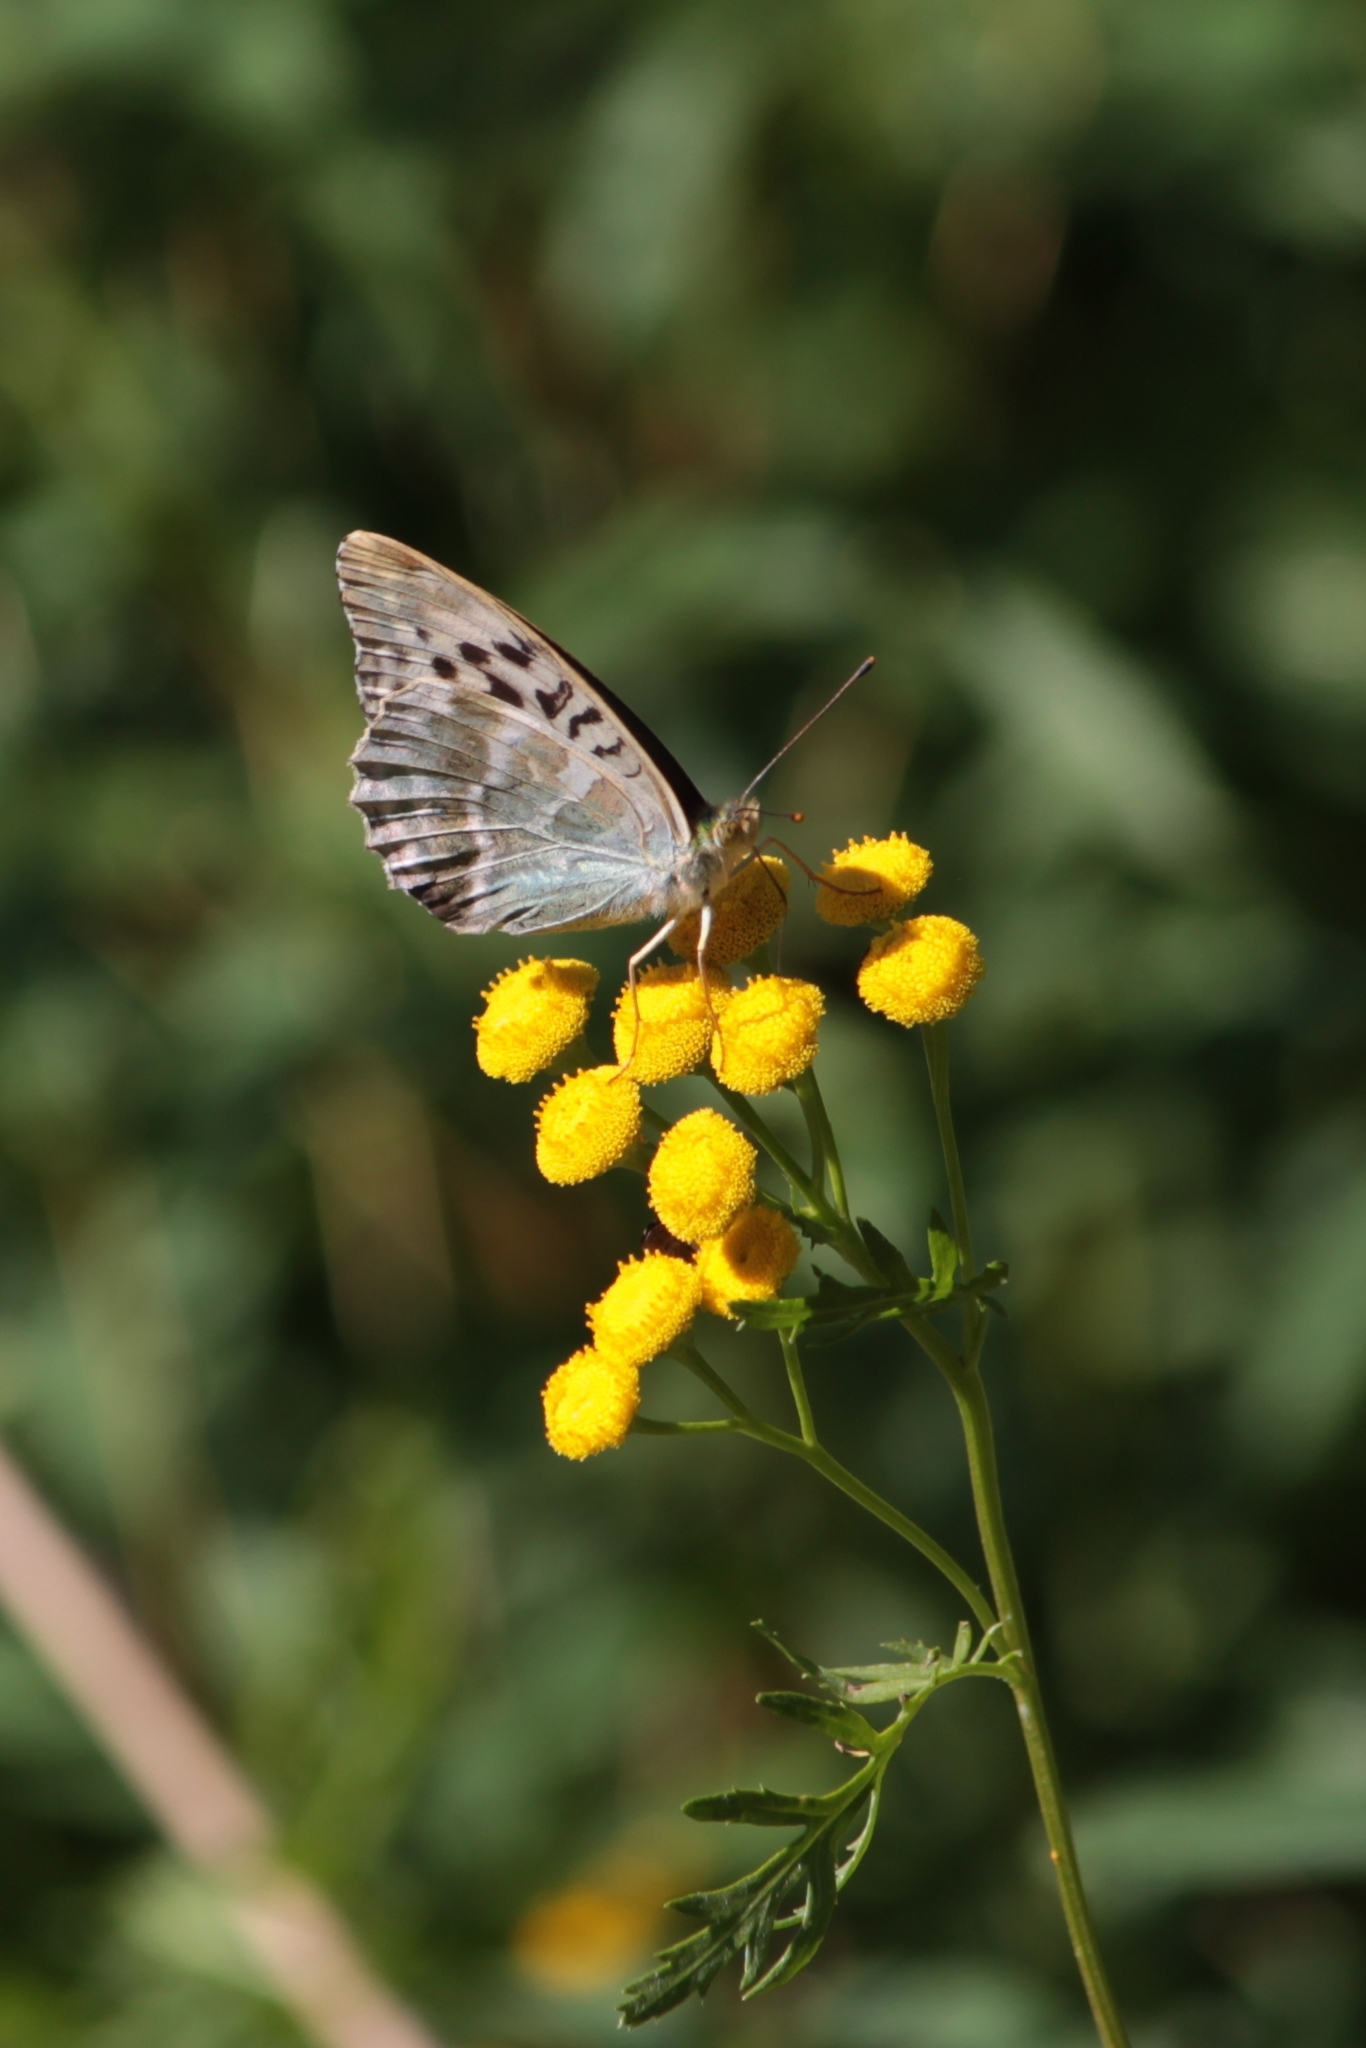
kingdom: Animalia
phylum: Arthropoda
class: Insecta
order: Lepidoptera
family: Nymphalidae
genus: Argynnis
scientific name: Argynnis paphia
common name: Silver-washed fritillary
